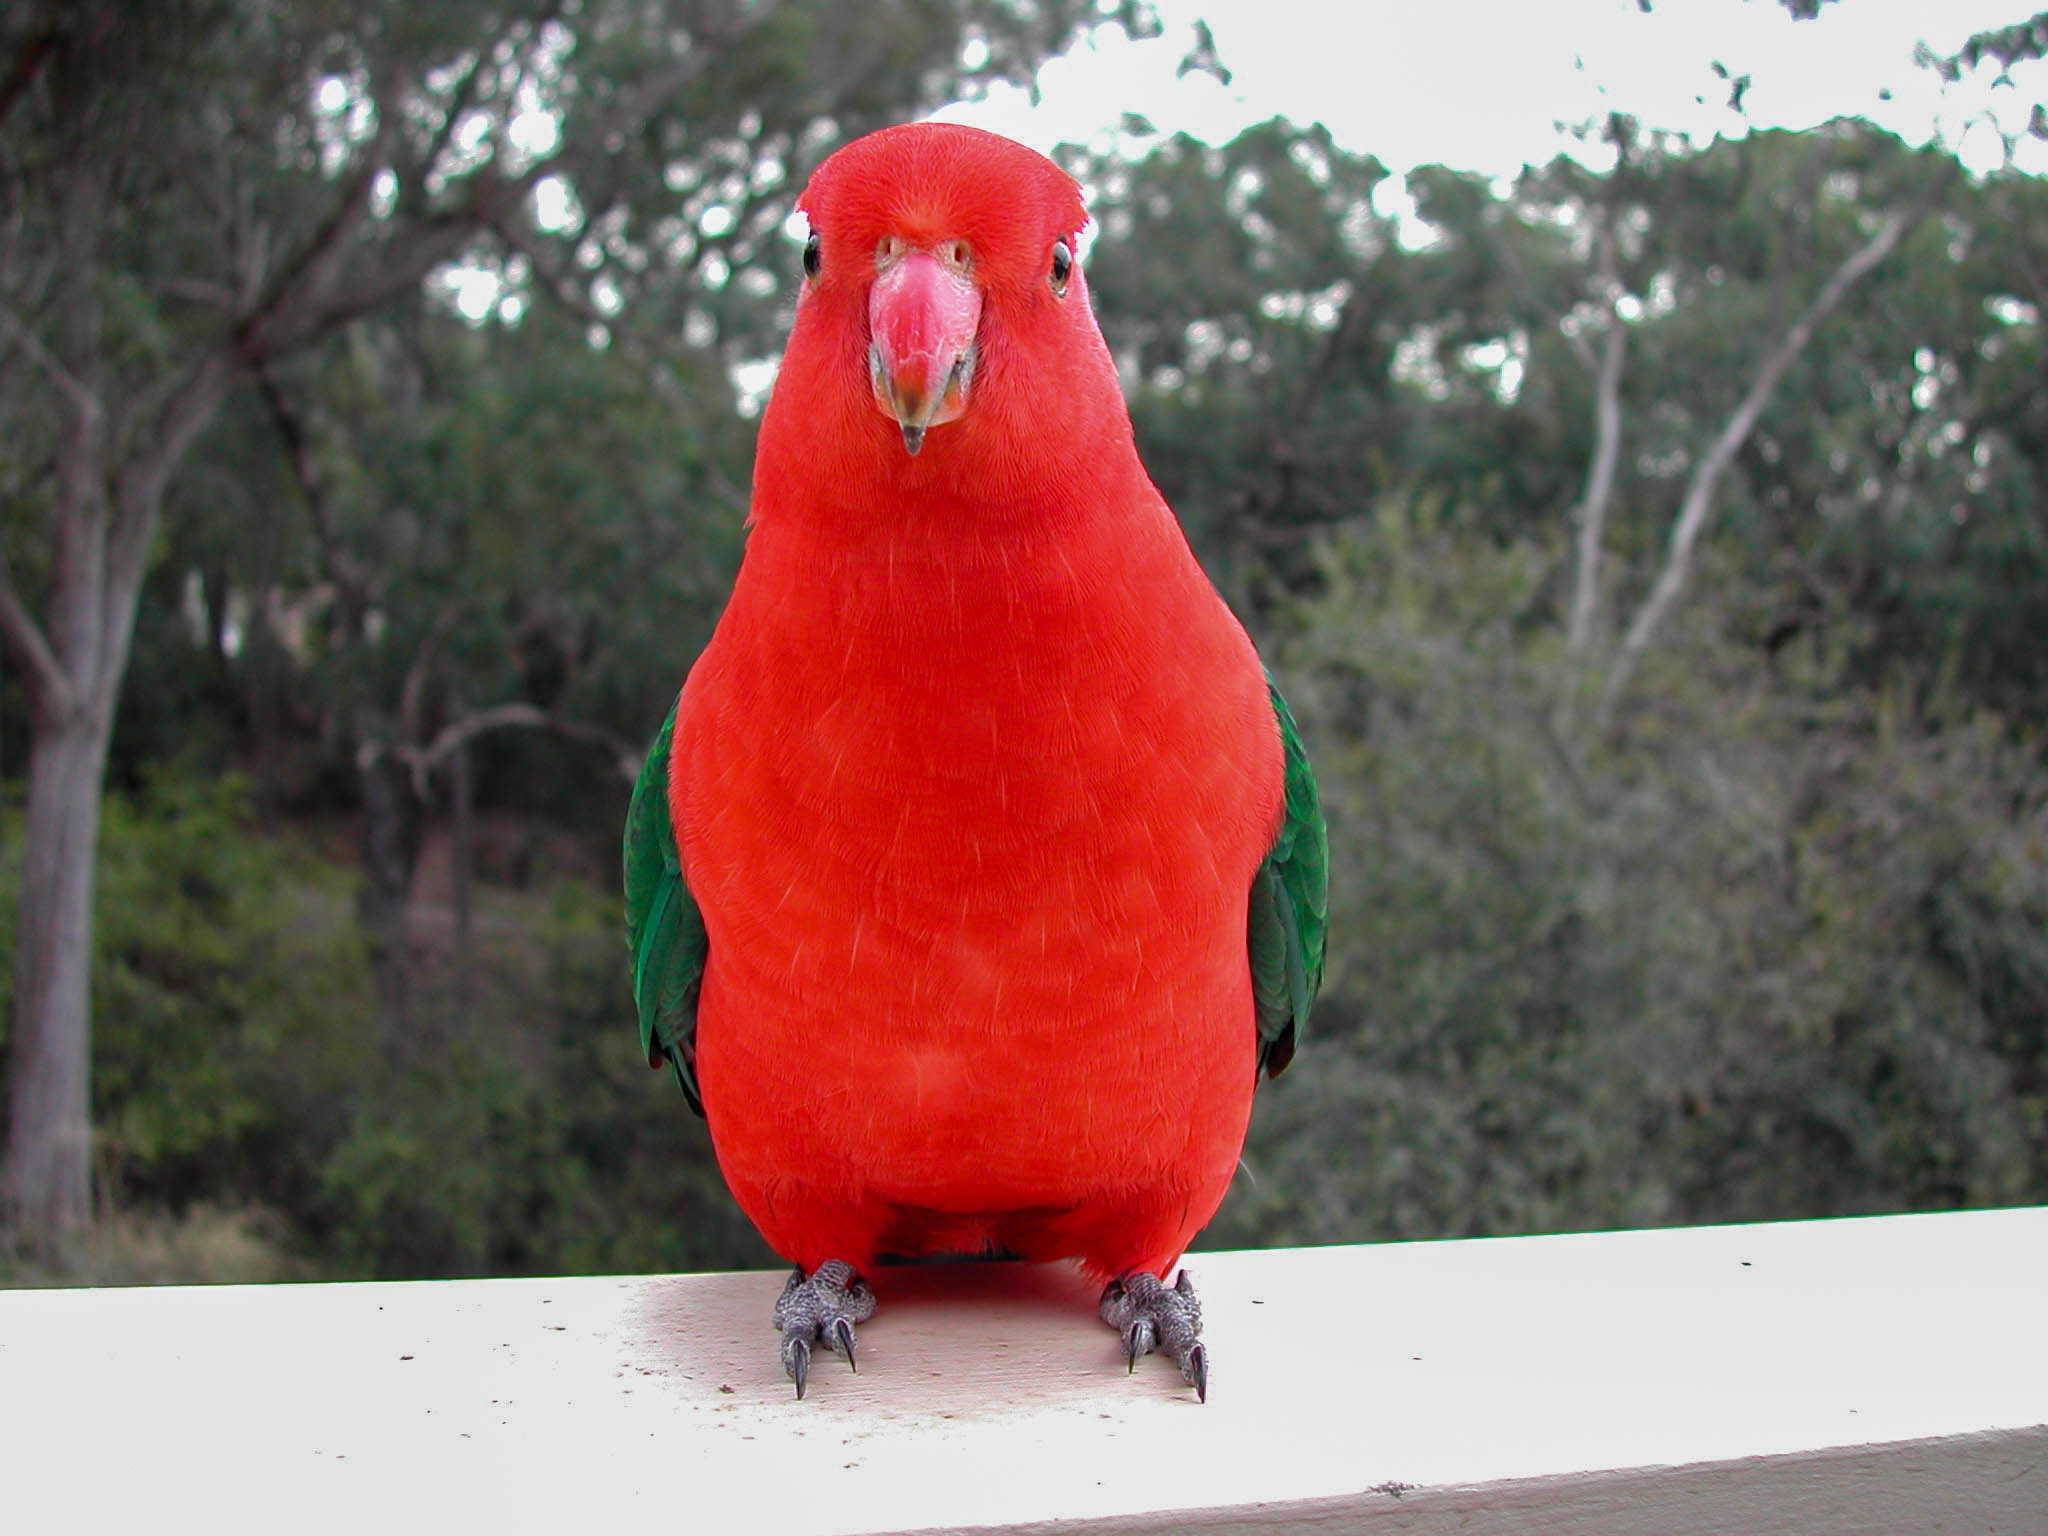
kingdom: Animalia
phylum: Chordata
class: Aves
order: Psittaciformes
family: Psittacidae
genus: Alisterus
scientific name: Alisterus scapularis
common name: Australian king parrot
